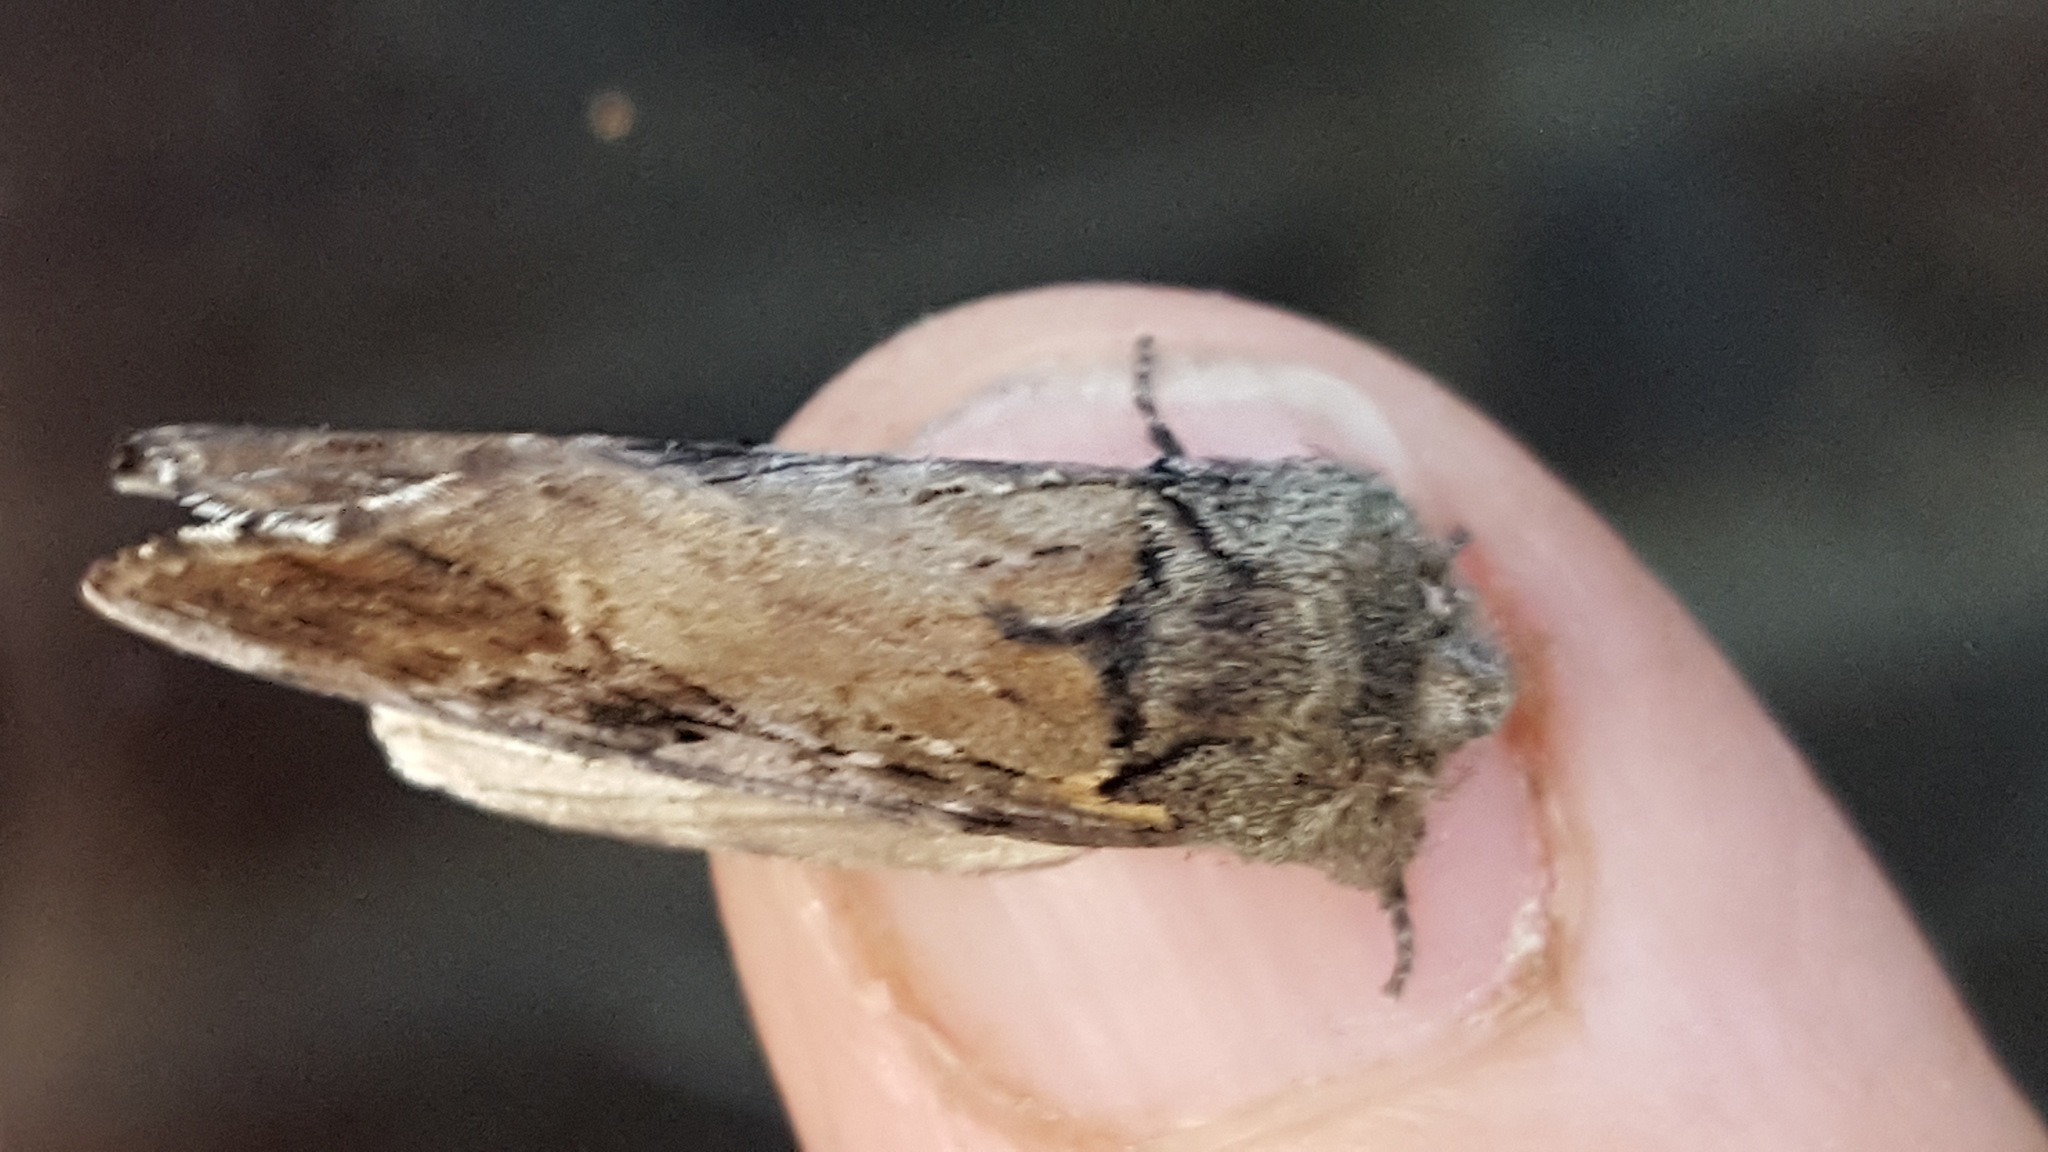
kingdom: Animalia
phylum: Arthropoda
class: Insecta
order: Lepidoptera
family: Notodontidae
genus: Schizura
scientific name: Schizura
